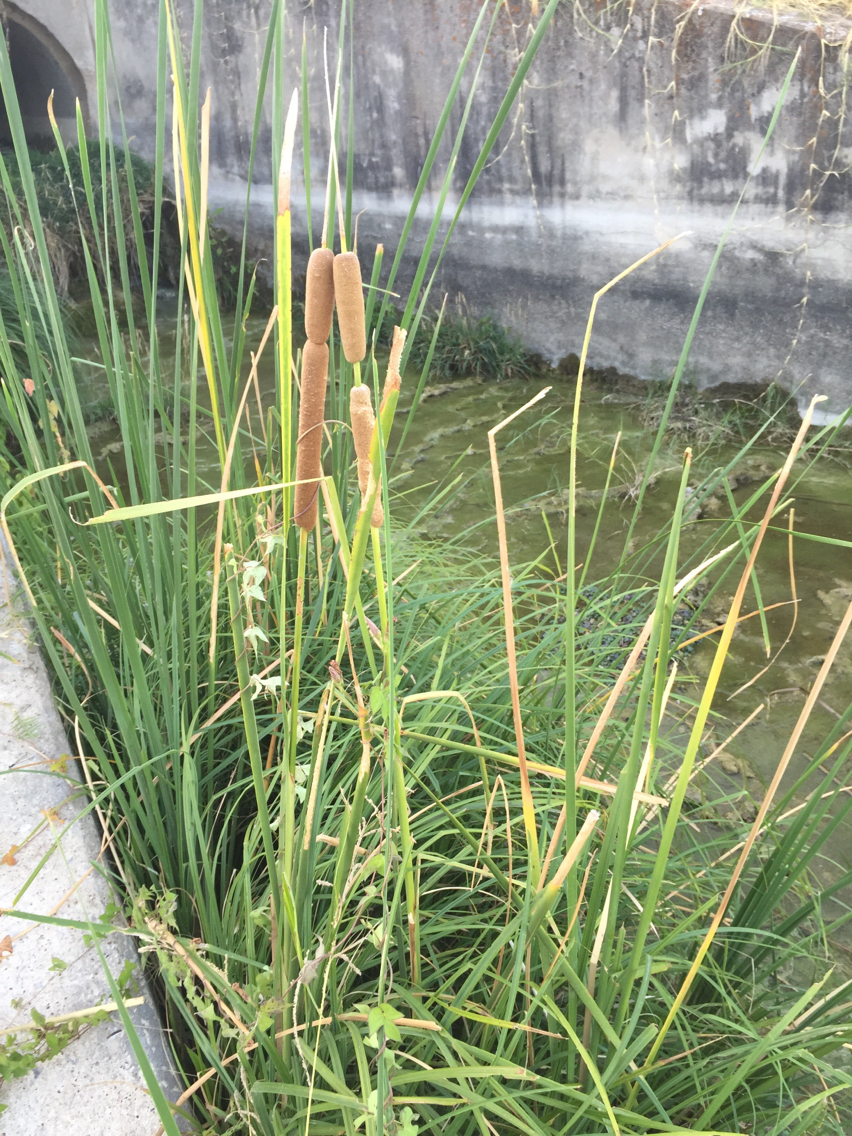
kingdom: Plantae
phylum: Tracheophyta
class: Liliopsida
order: Poales
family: Typhaceae
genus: Typha
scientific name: Typha domingensis
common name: Southern cattail
